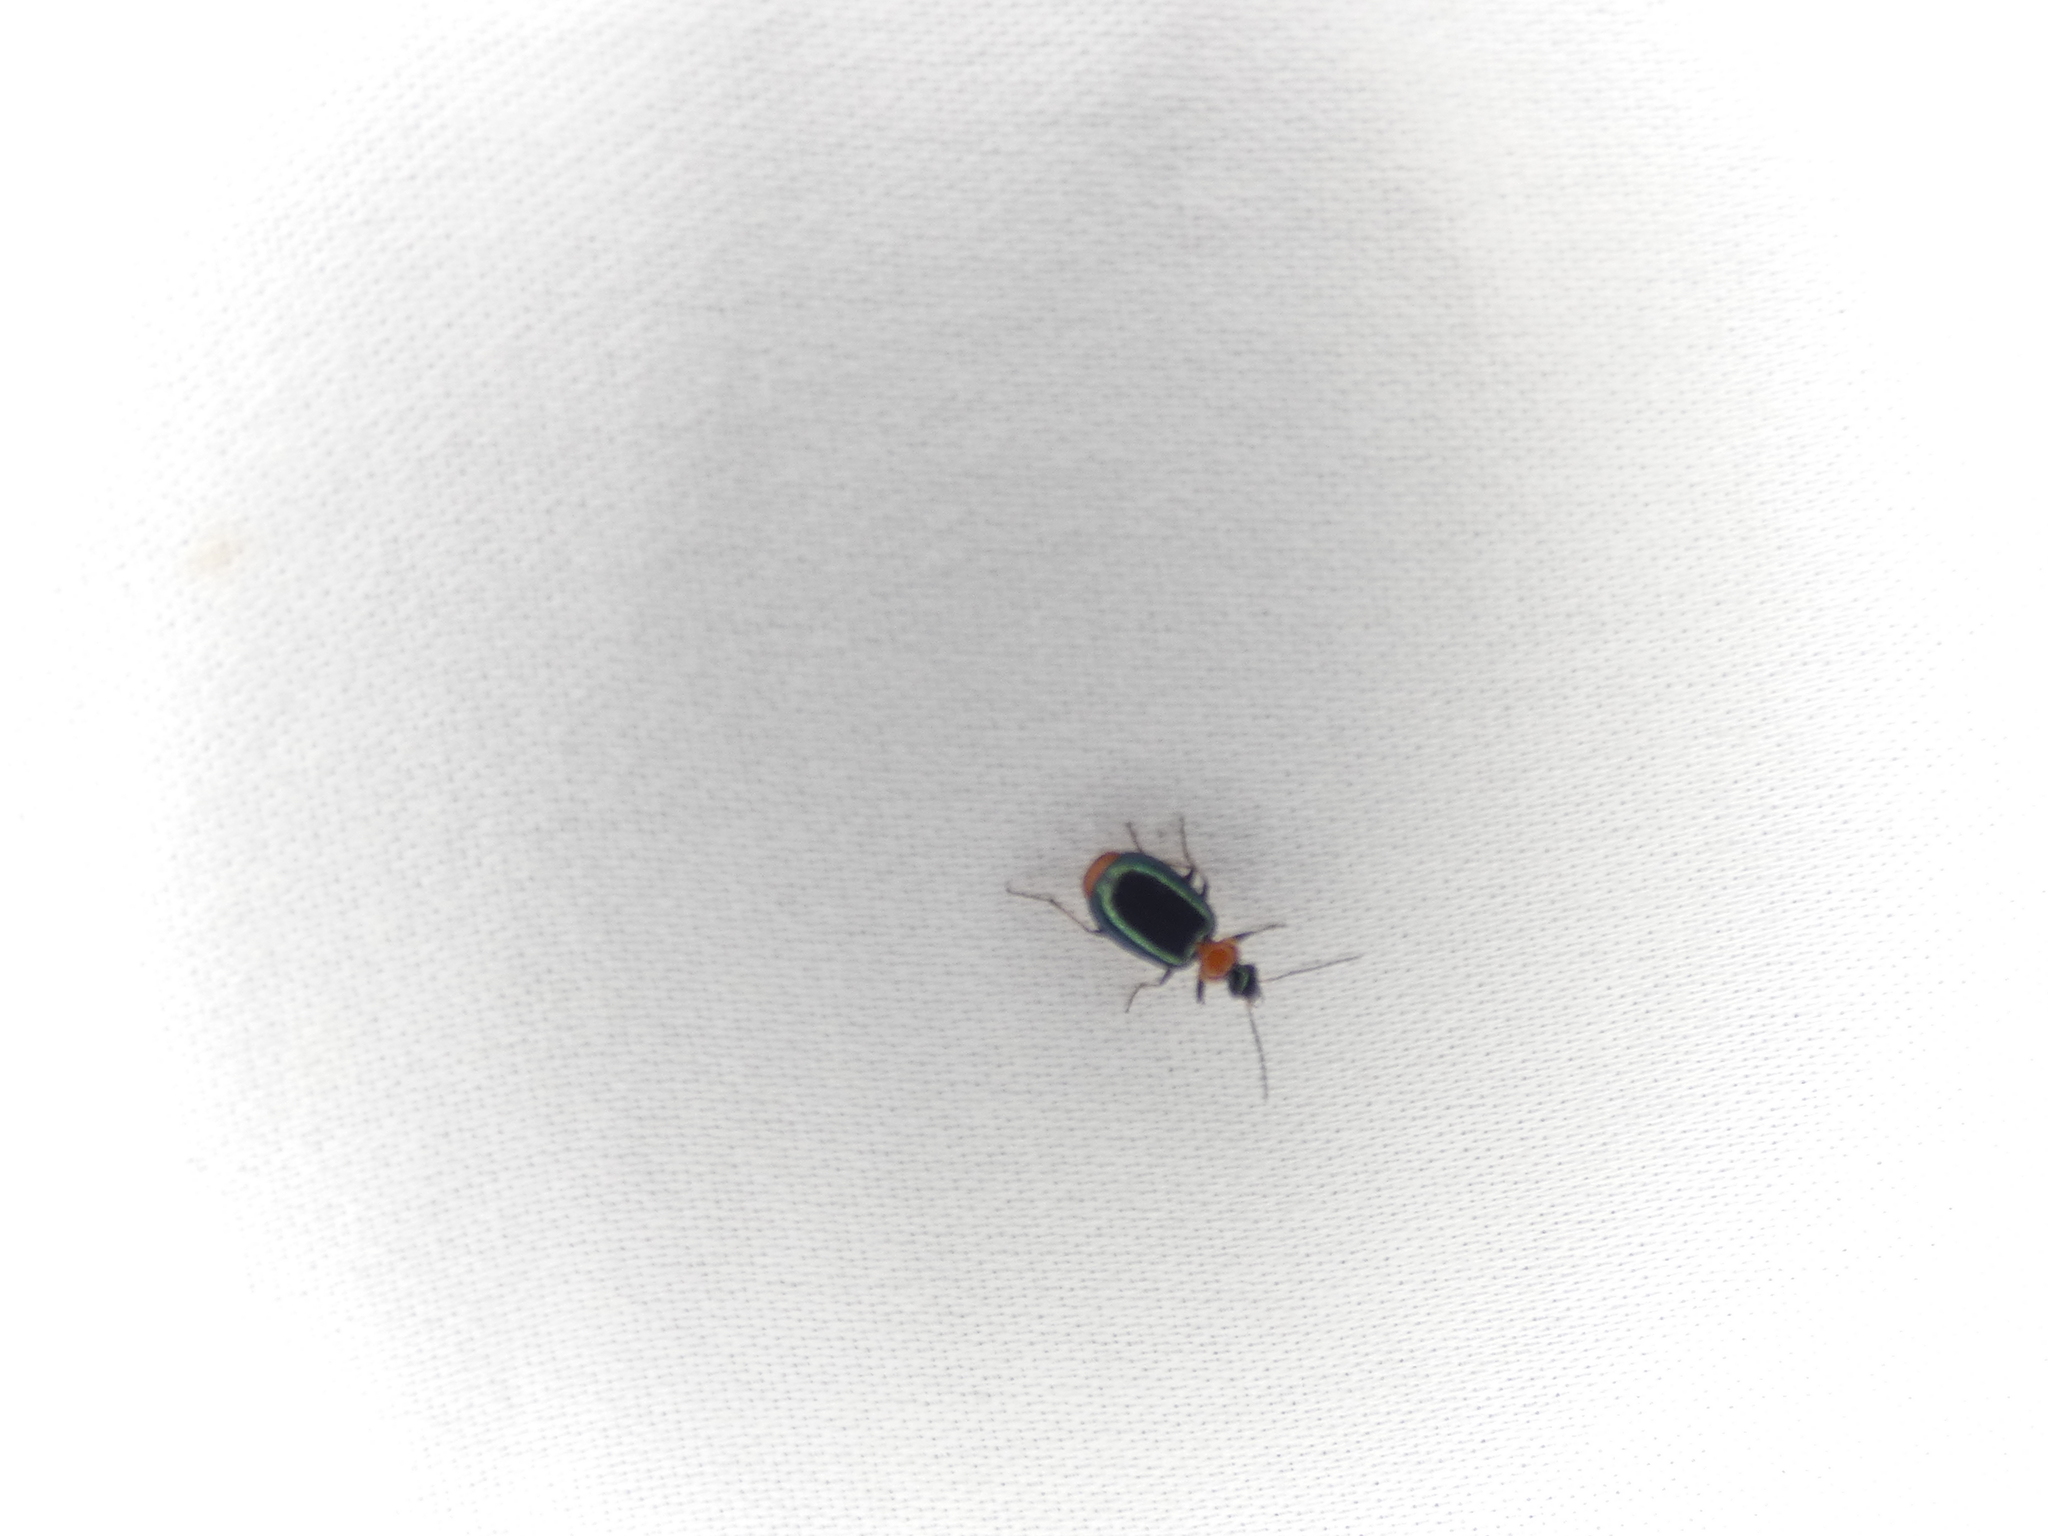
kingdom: Animalia
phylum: Arthropoda
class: Insecta
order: Coleoptera
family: Carabidae
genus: Lebia
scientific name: Lebia viridipennis
